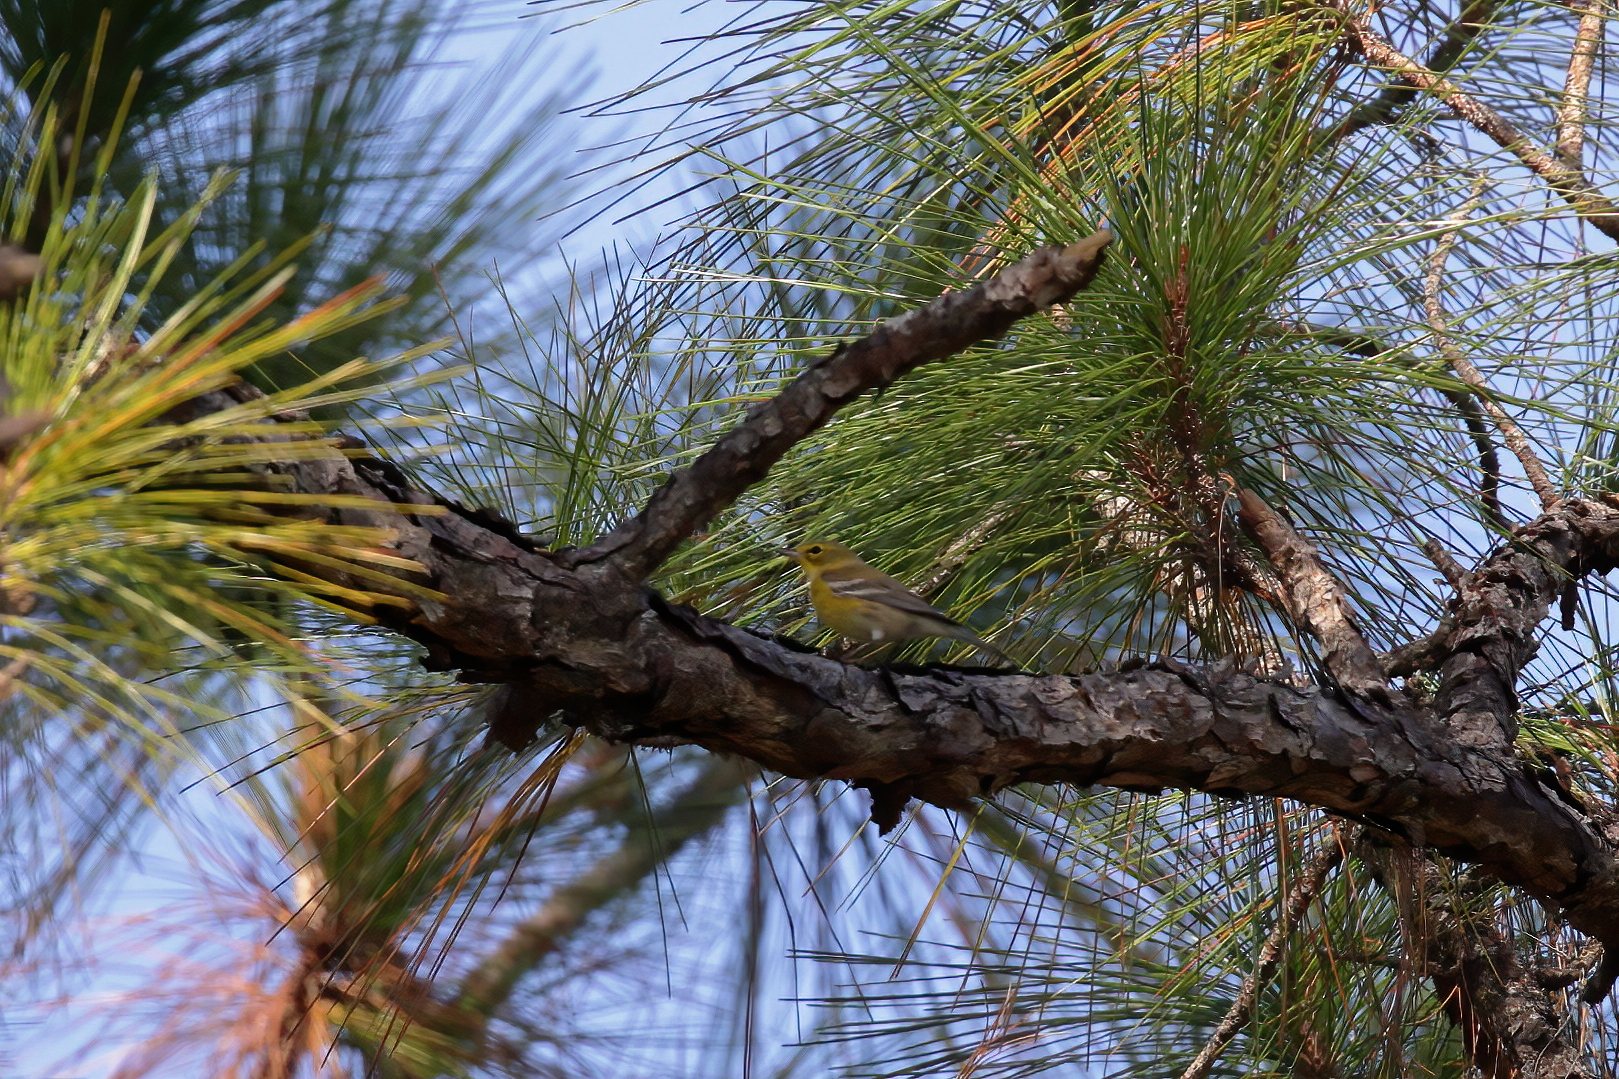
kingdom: Animalia
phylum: Chordata
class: Aves
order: Passeriformes
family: Parulidae
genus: Setophaga
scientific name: Setophaga pinus
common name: Pine warbler
